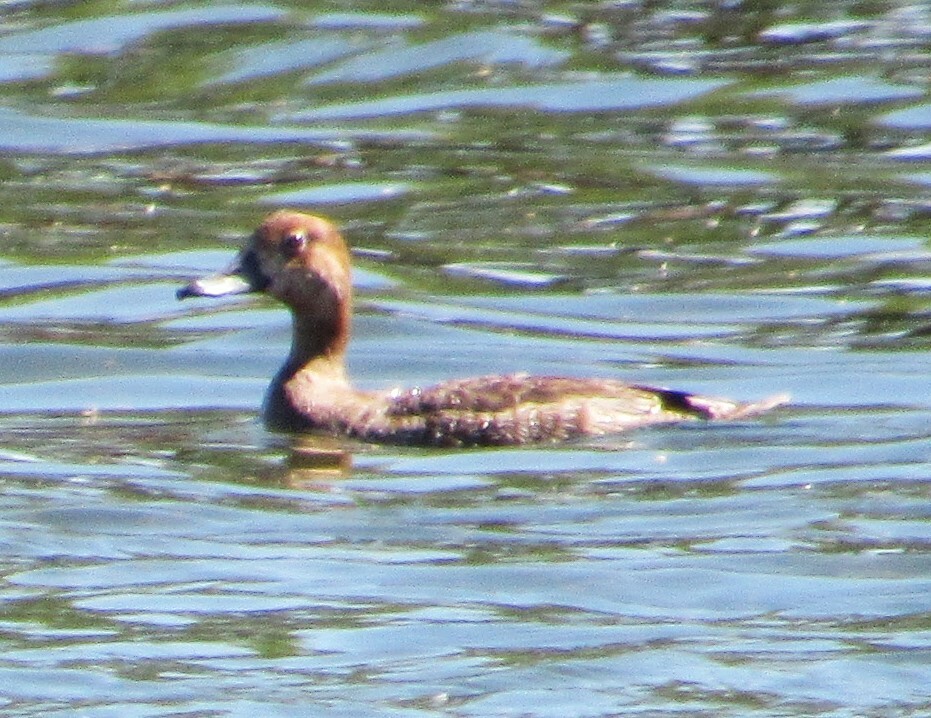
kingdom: Animalia
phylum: Chordata
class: Aves
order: Anseriformes
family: Anatidae
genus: Aythya
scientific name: Aythya americana
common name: Redhead
